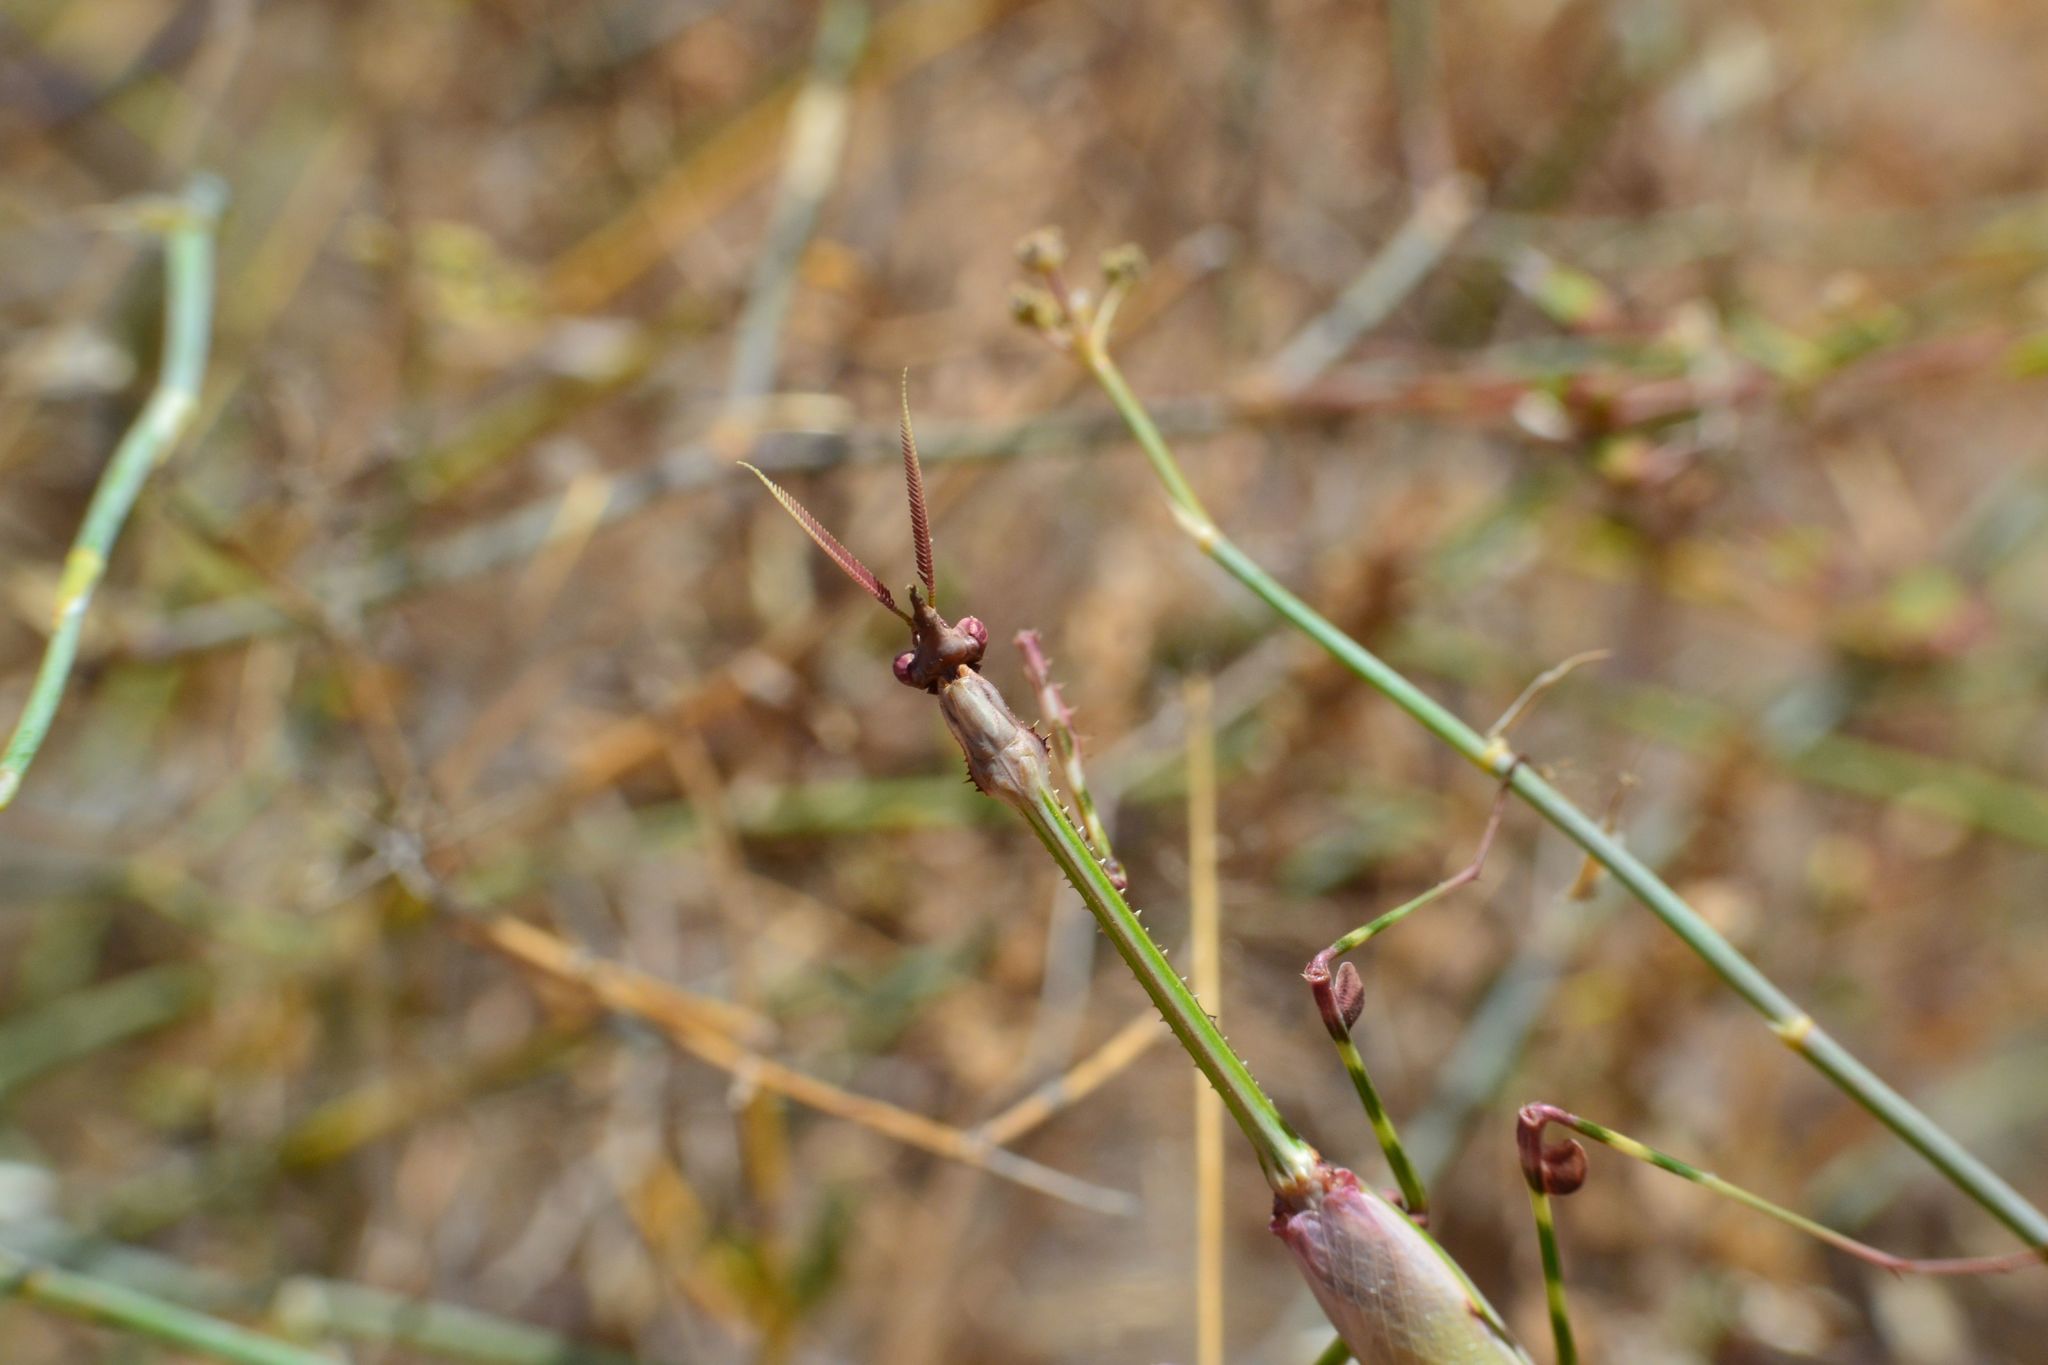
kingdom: Animalia
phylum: Arthropoda
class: Insecta
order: Mantodea
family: Empusidae
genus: Empusa
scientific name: Empusa guttula
